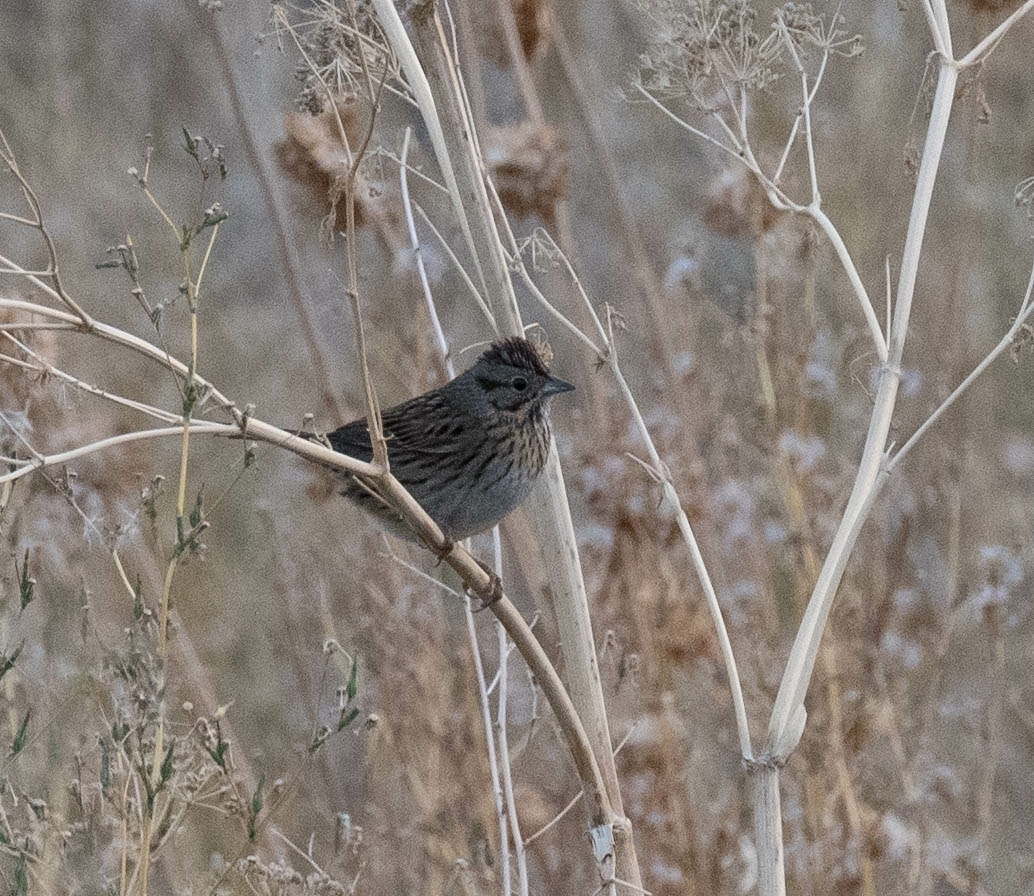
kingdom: Animalia
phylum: Chordata
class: Aves
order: Passeriformes
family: Passerellidae
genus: Melospiza
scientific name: Melospiza lincolnii
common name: Lincoln's sparrow
